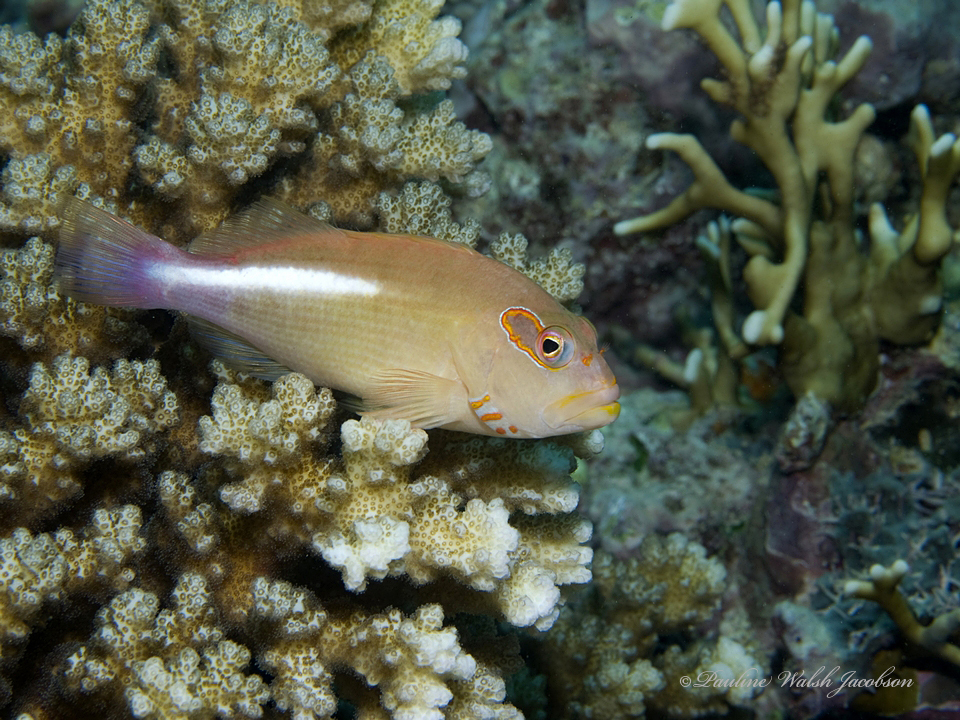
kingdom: Animalia
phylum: Chordata
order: Perciformes
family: Cirrhitidae
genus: Paracirrhites
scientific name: Paracirrhites arcatus
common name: Arc-eye hawkfish
